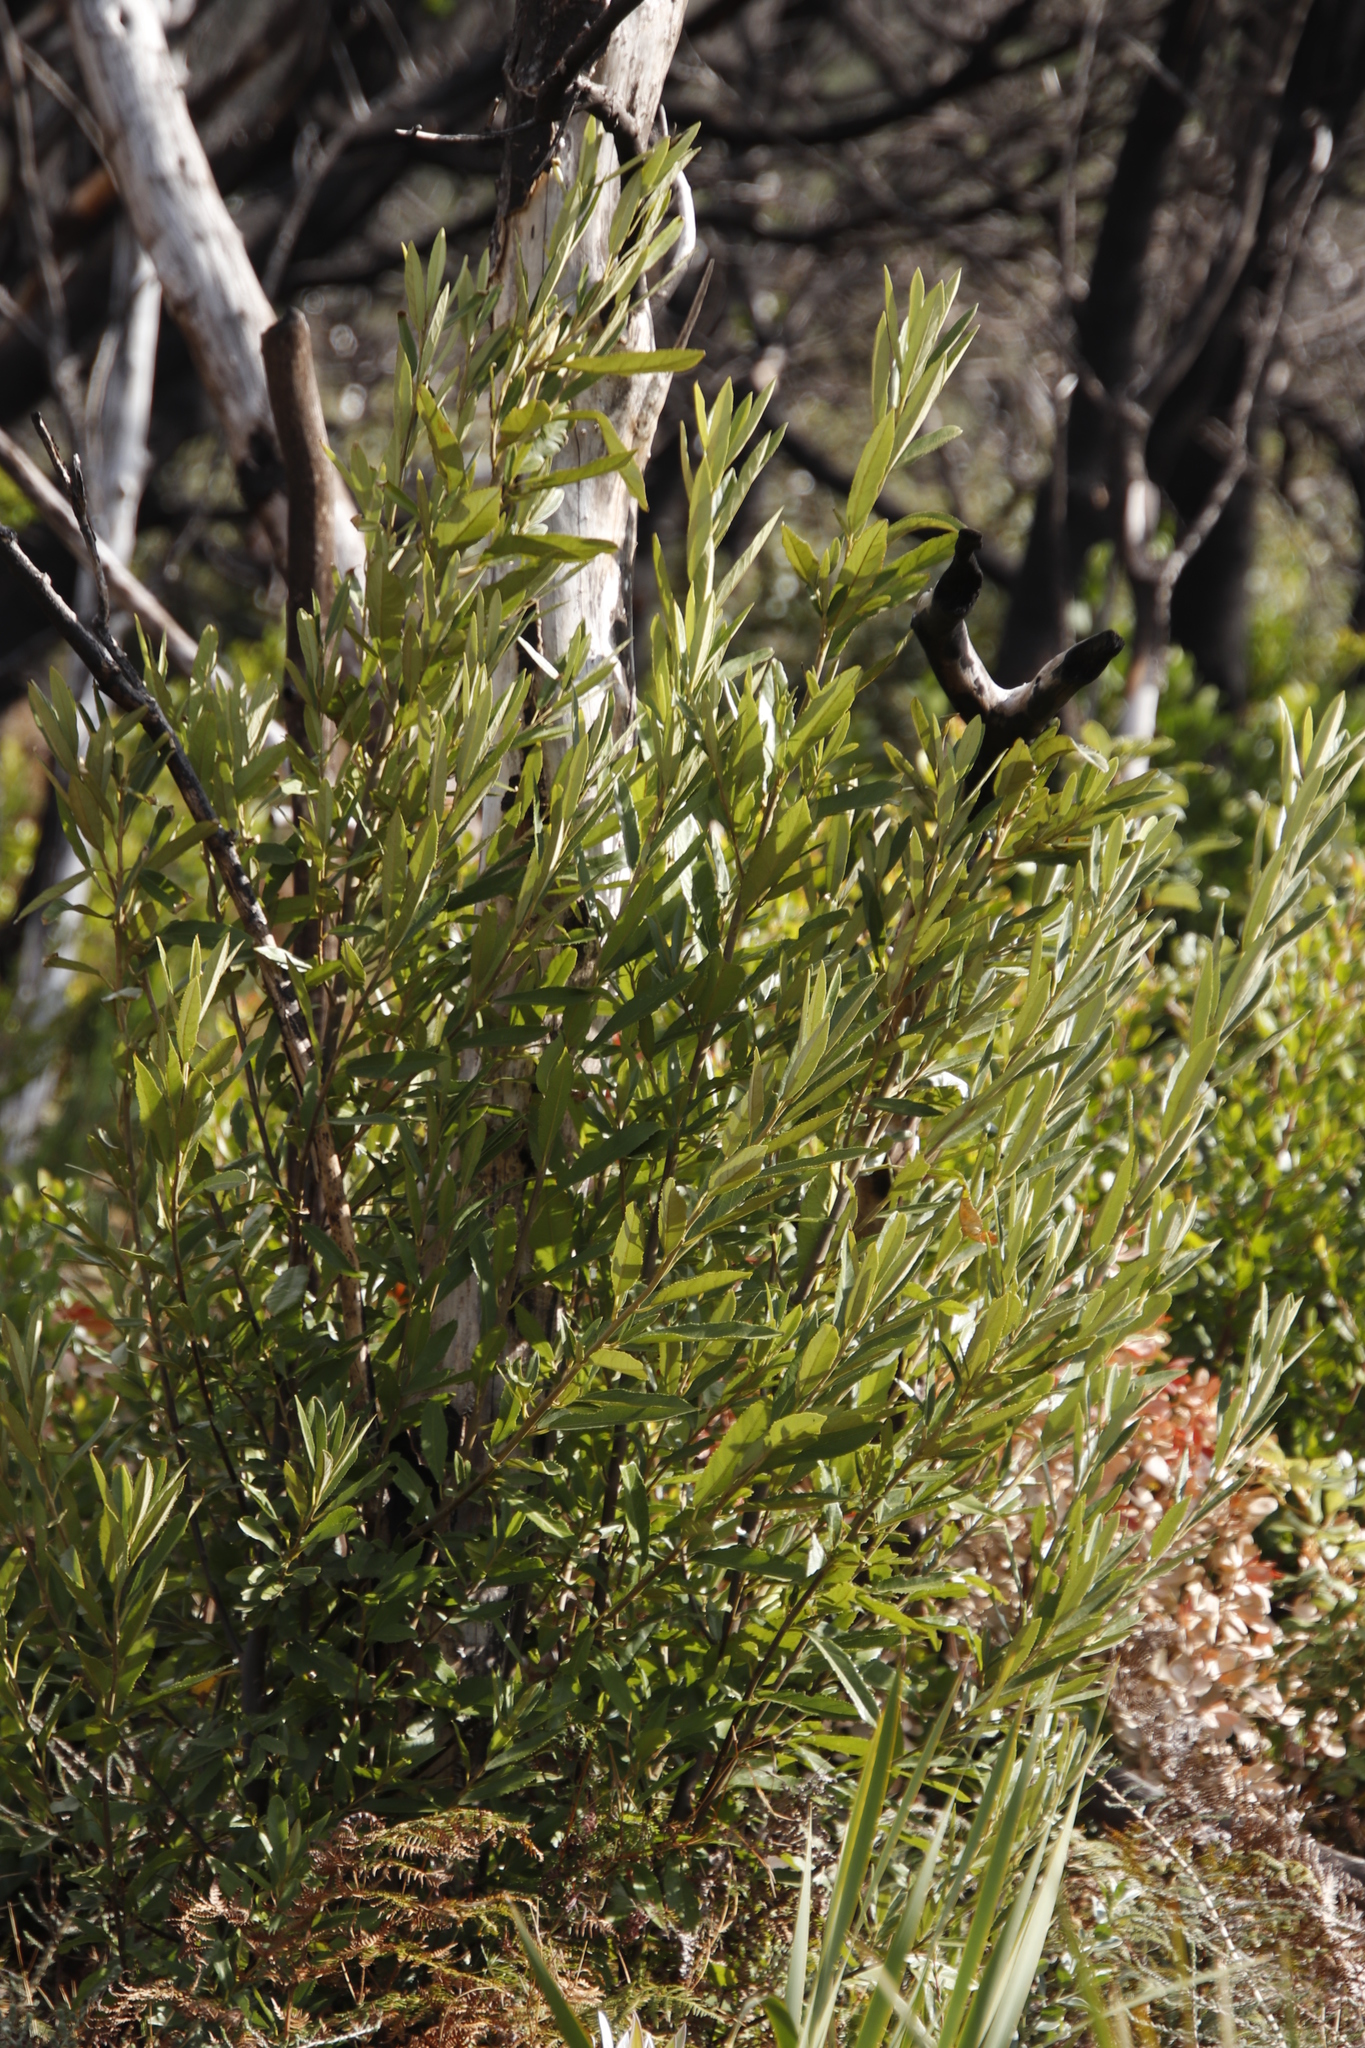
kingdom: Plantae
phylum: Tracheophyta
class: Magnoliopsida
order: Malpighiales
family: Achariaceae
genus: Kiggelaria
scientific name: Kiggelaria africana
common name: Wild peach
